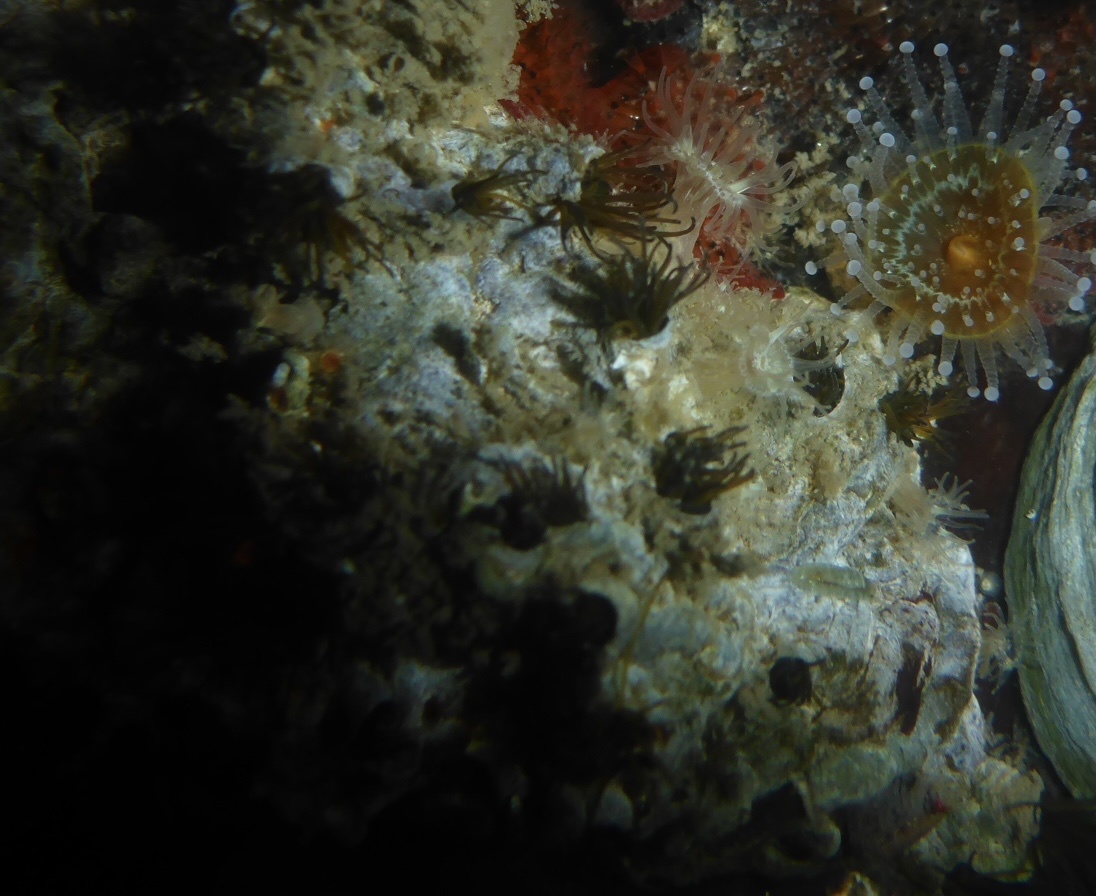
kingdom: Animalia
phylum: Annelida
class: Polychaeta
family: Cirratulidae
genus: Dodecaceria
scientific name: Dodecaceria pacifica
